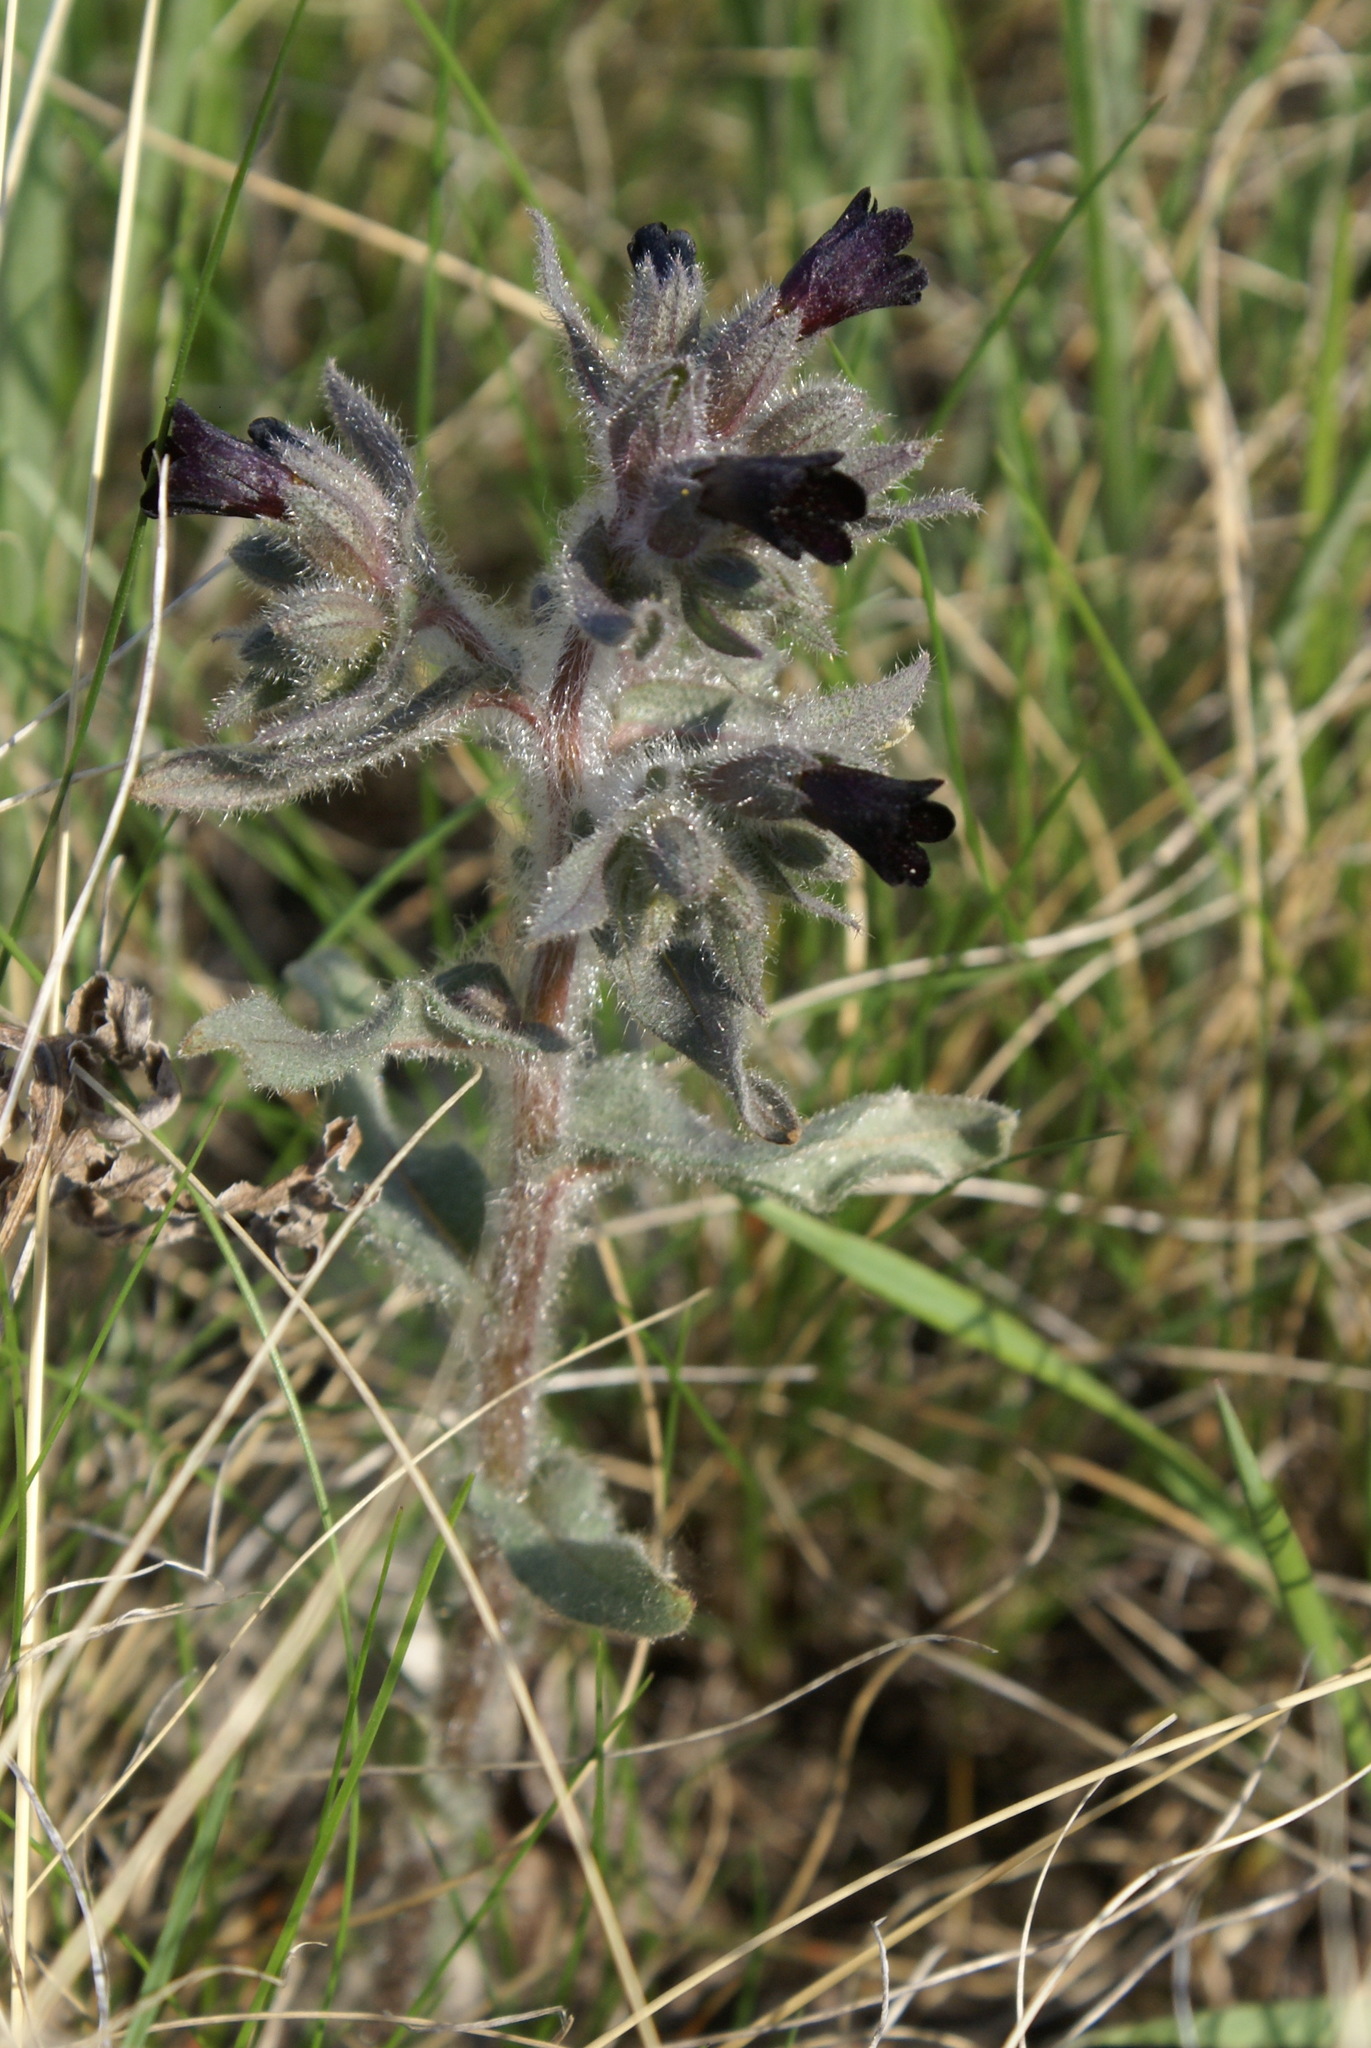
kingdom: Plantae
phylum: Tracheophyta
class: Magnoliopsida
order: Boraginales
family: Boraginaceae
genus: Nonea
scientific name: Nonea pulla
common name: Brown nonea
